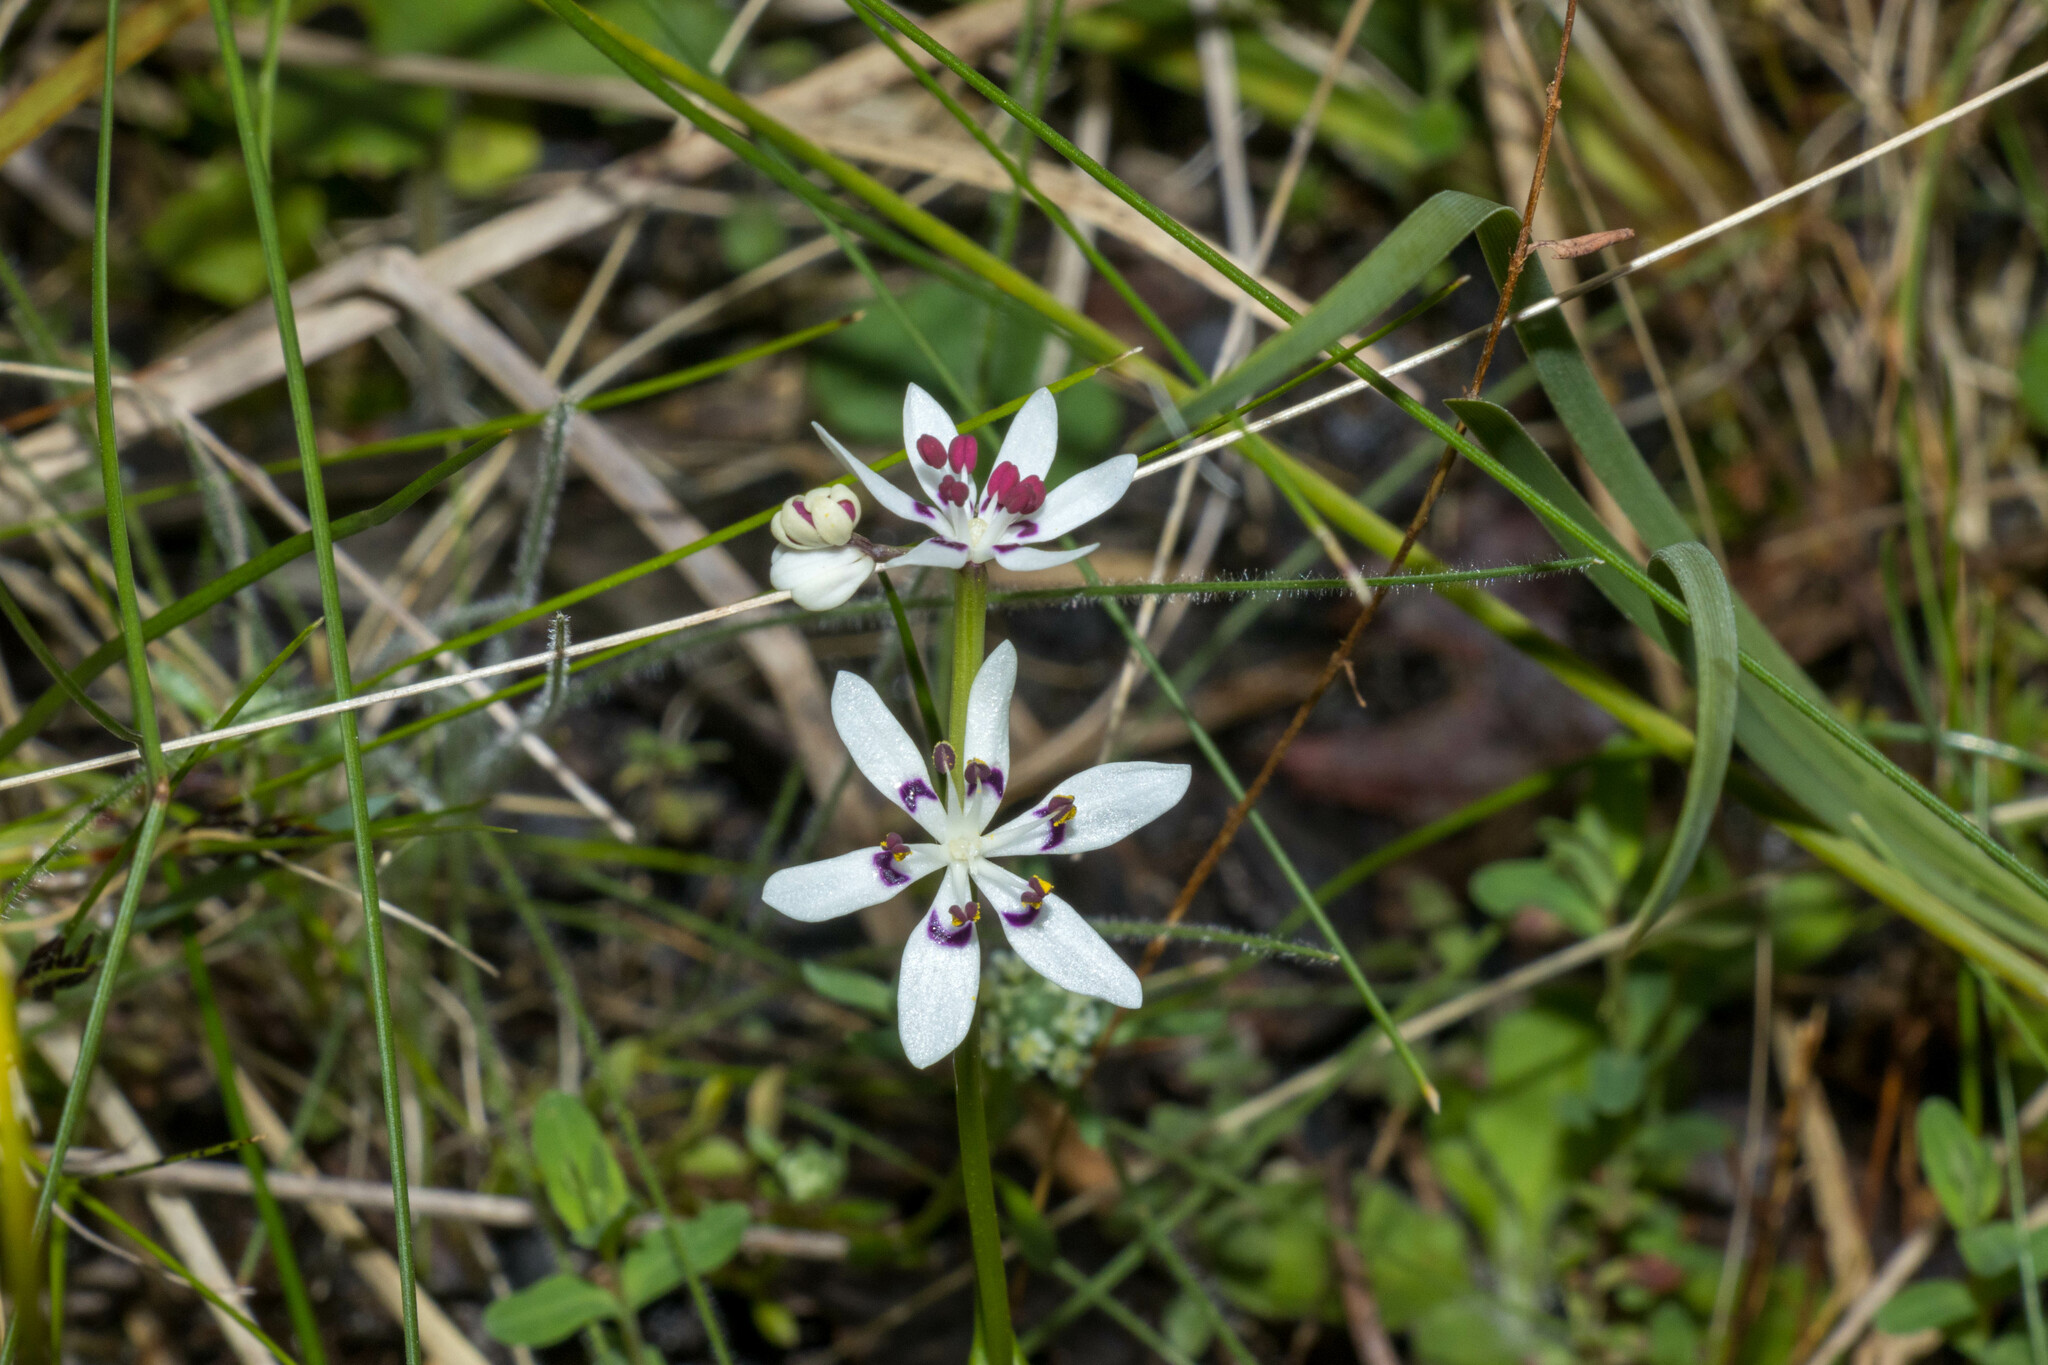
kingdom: Plantae
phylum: Tracheophyta
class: Liliopsida
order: Liliales
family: Colchicaceae
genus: Wurmbea
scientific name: Wurmbea dioica
